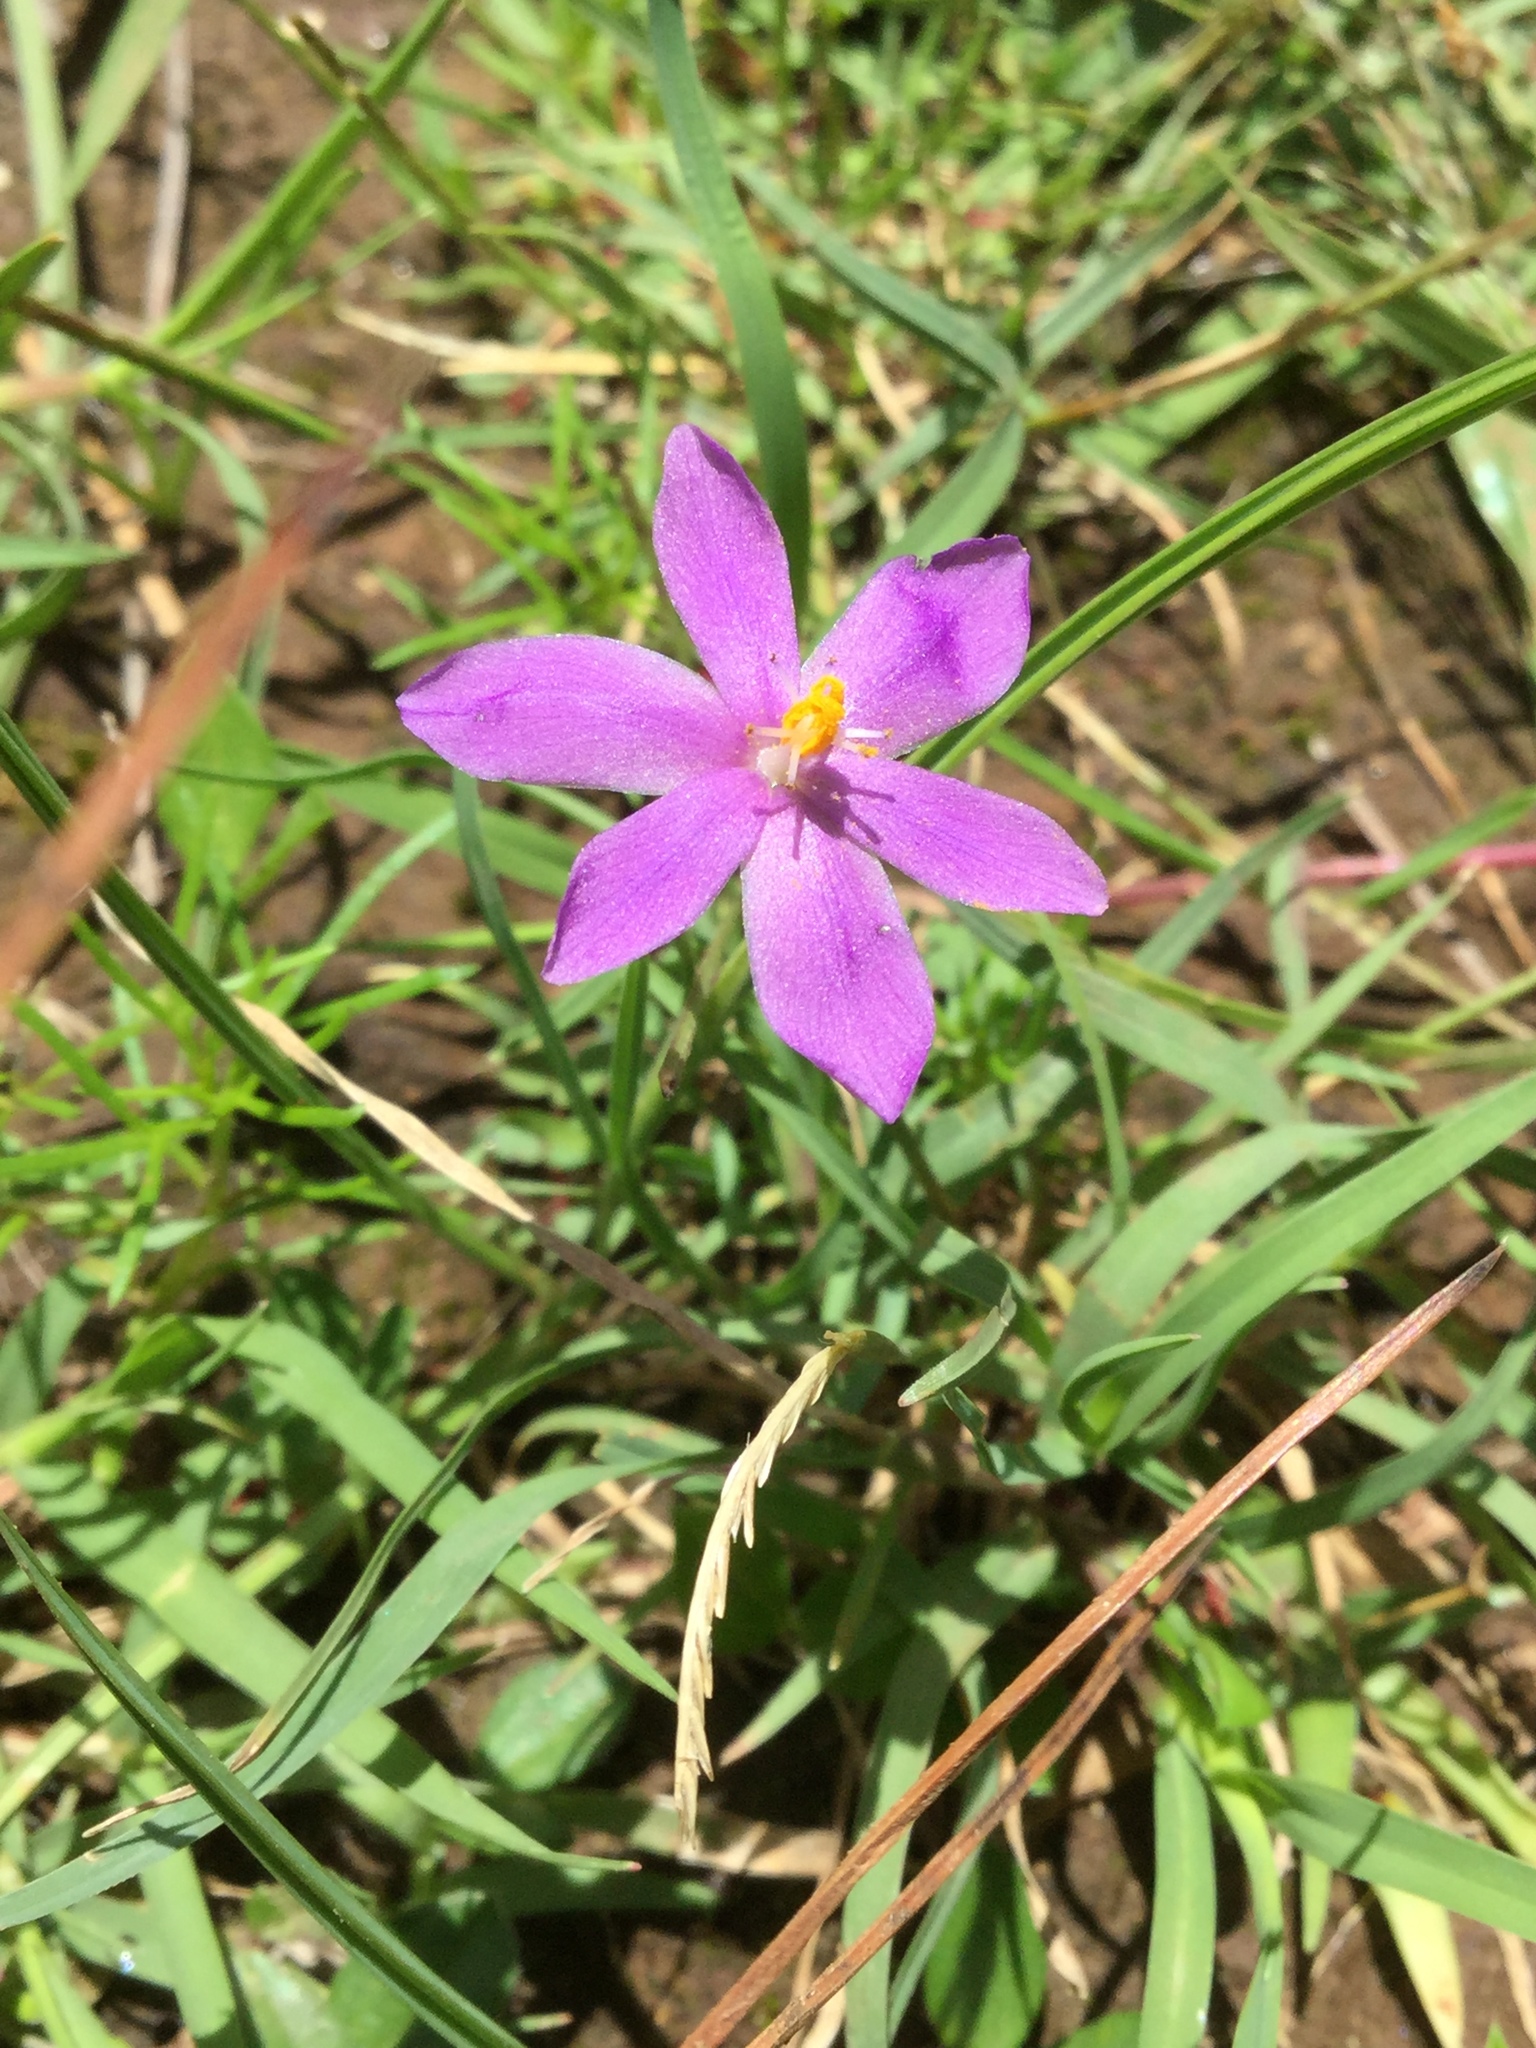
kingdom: Plantae
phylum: Tracheophyta
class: Liliopsida
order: Asparagales
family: Iridaceae
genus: Nemastylis
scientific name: Nemastylis tenuis
